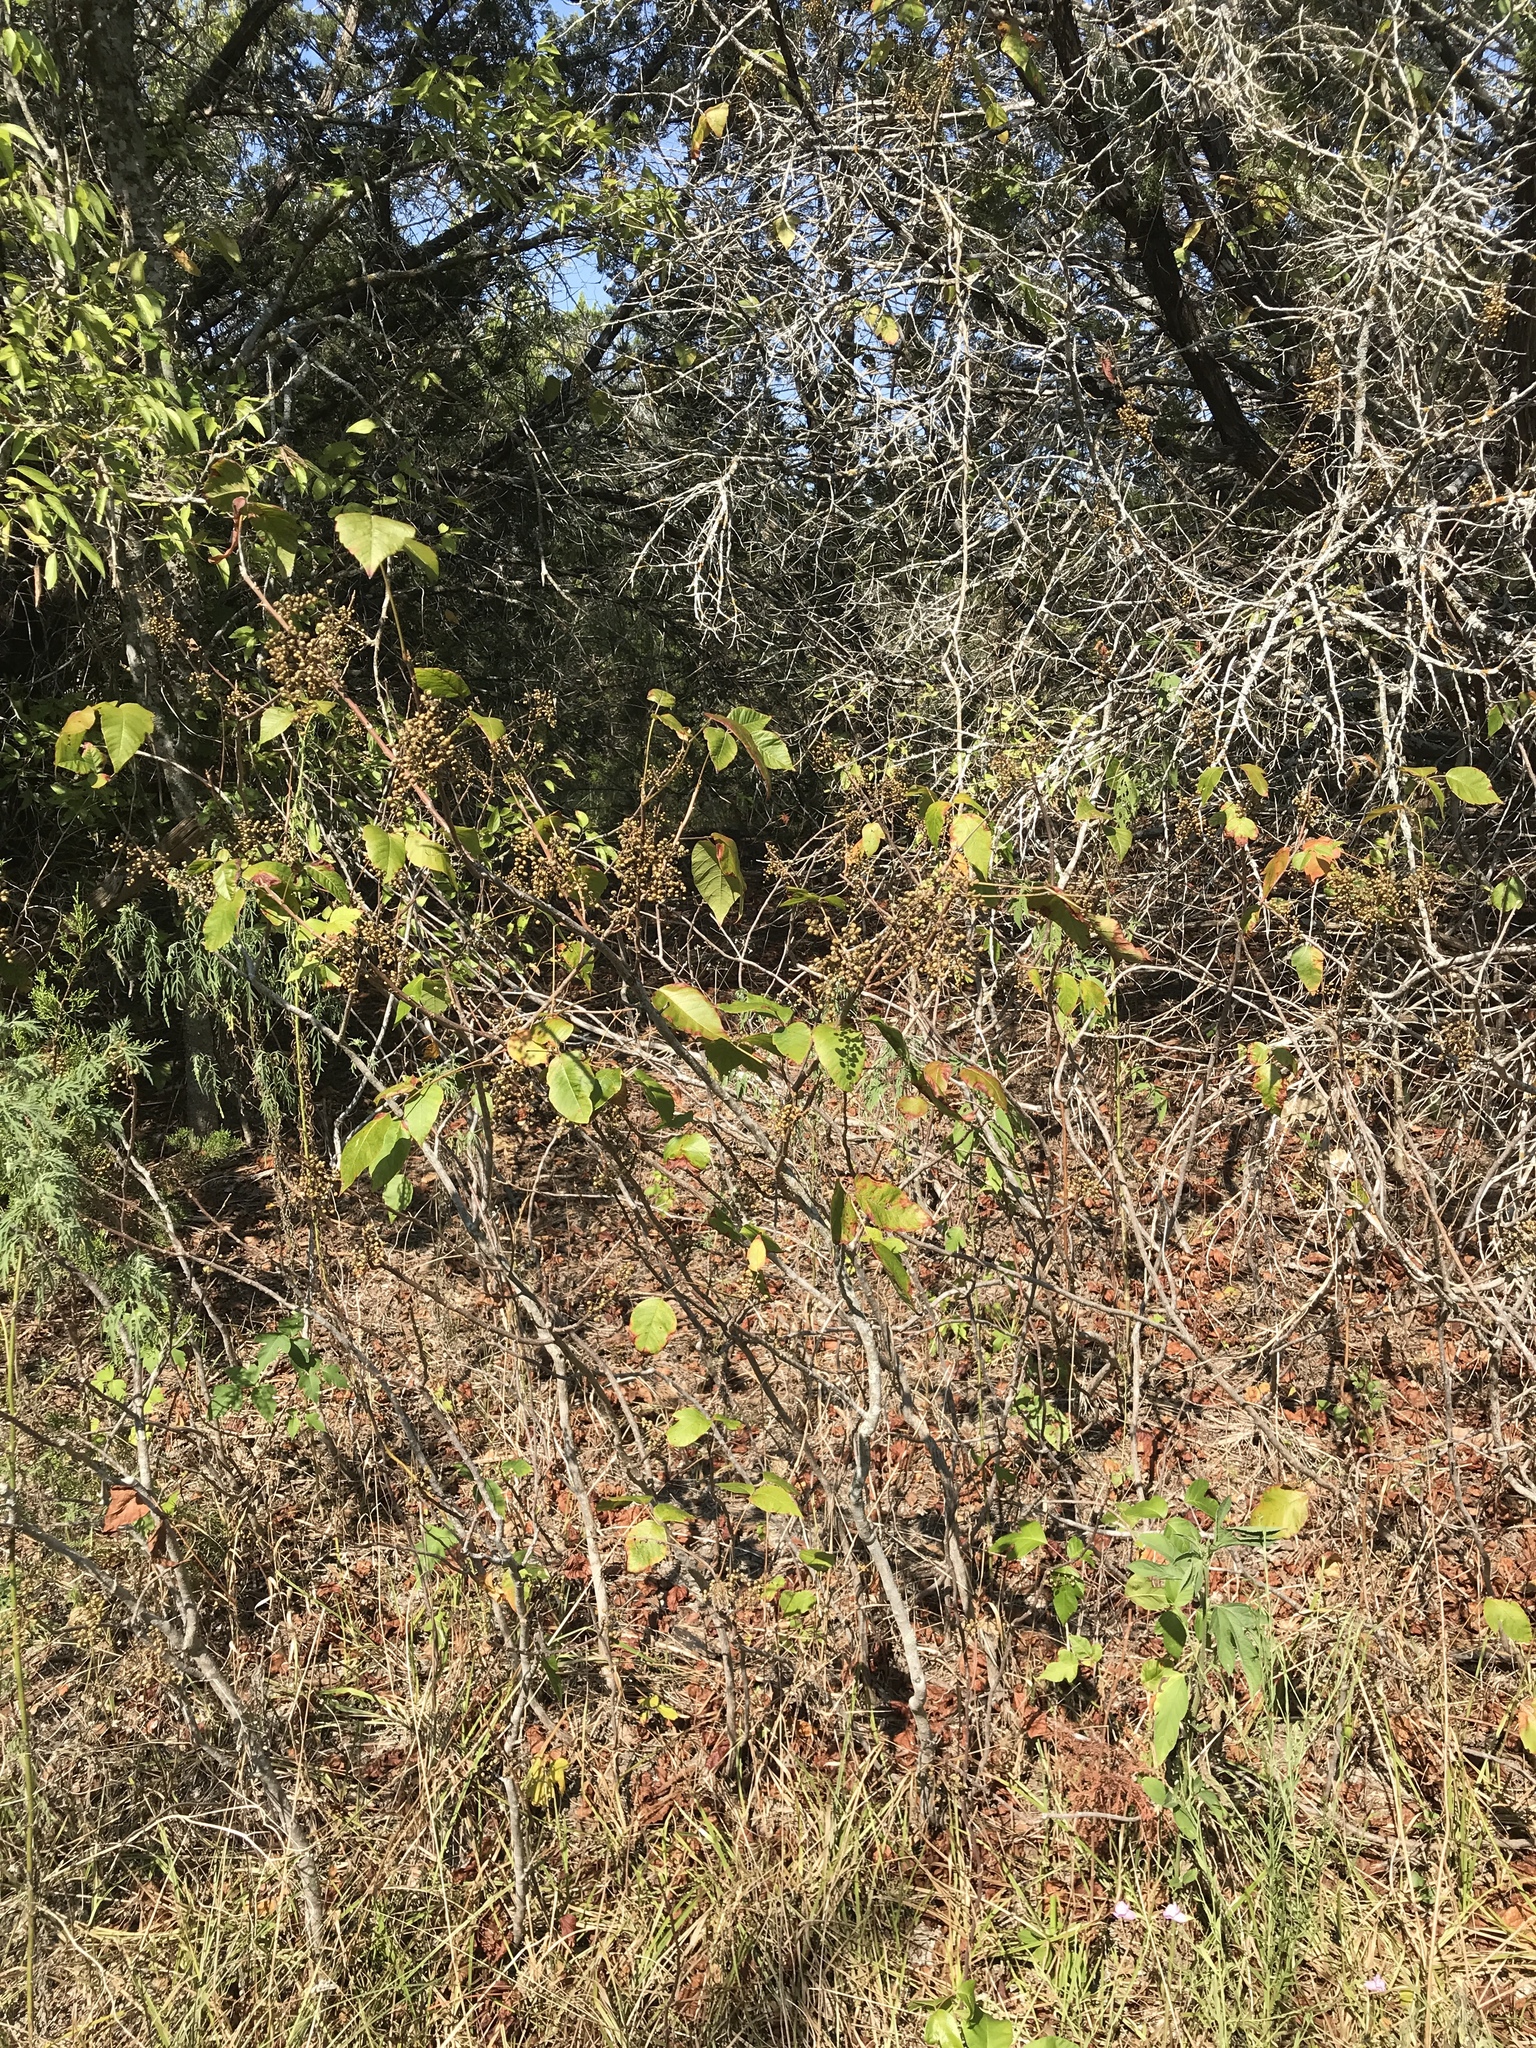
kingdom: Plantae
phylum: Tracheophyta
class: Magnoliopsida
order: Sapindales
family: Anacardiaceae
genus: Toxicodendron
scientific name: Toxicodendron radicans
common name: Poison ivy
